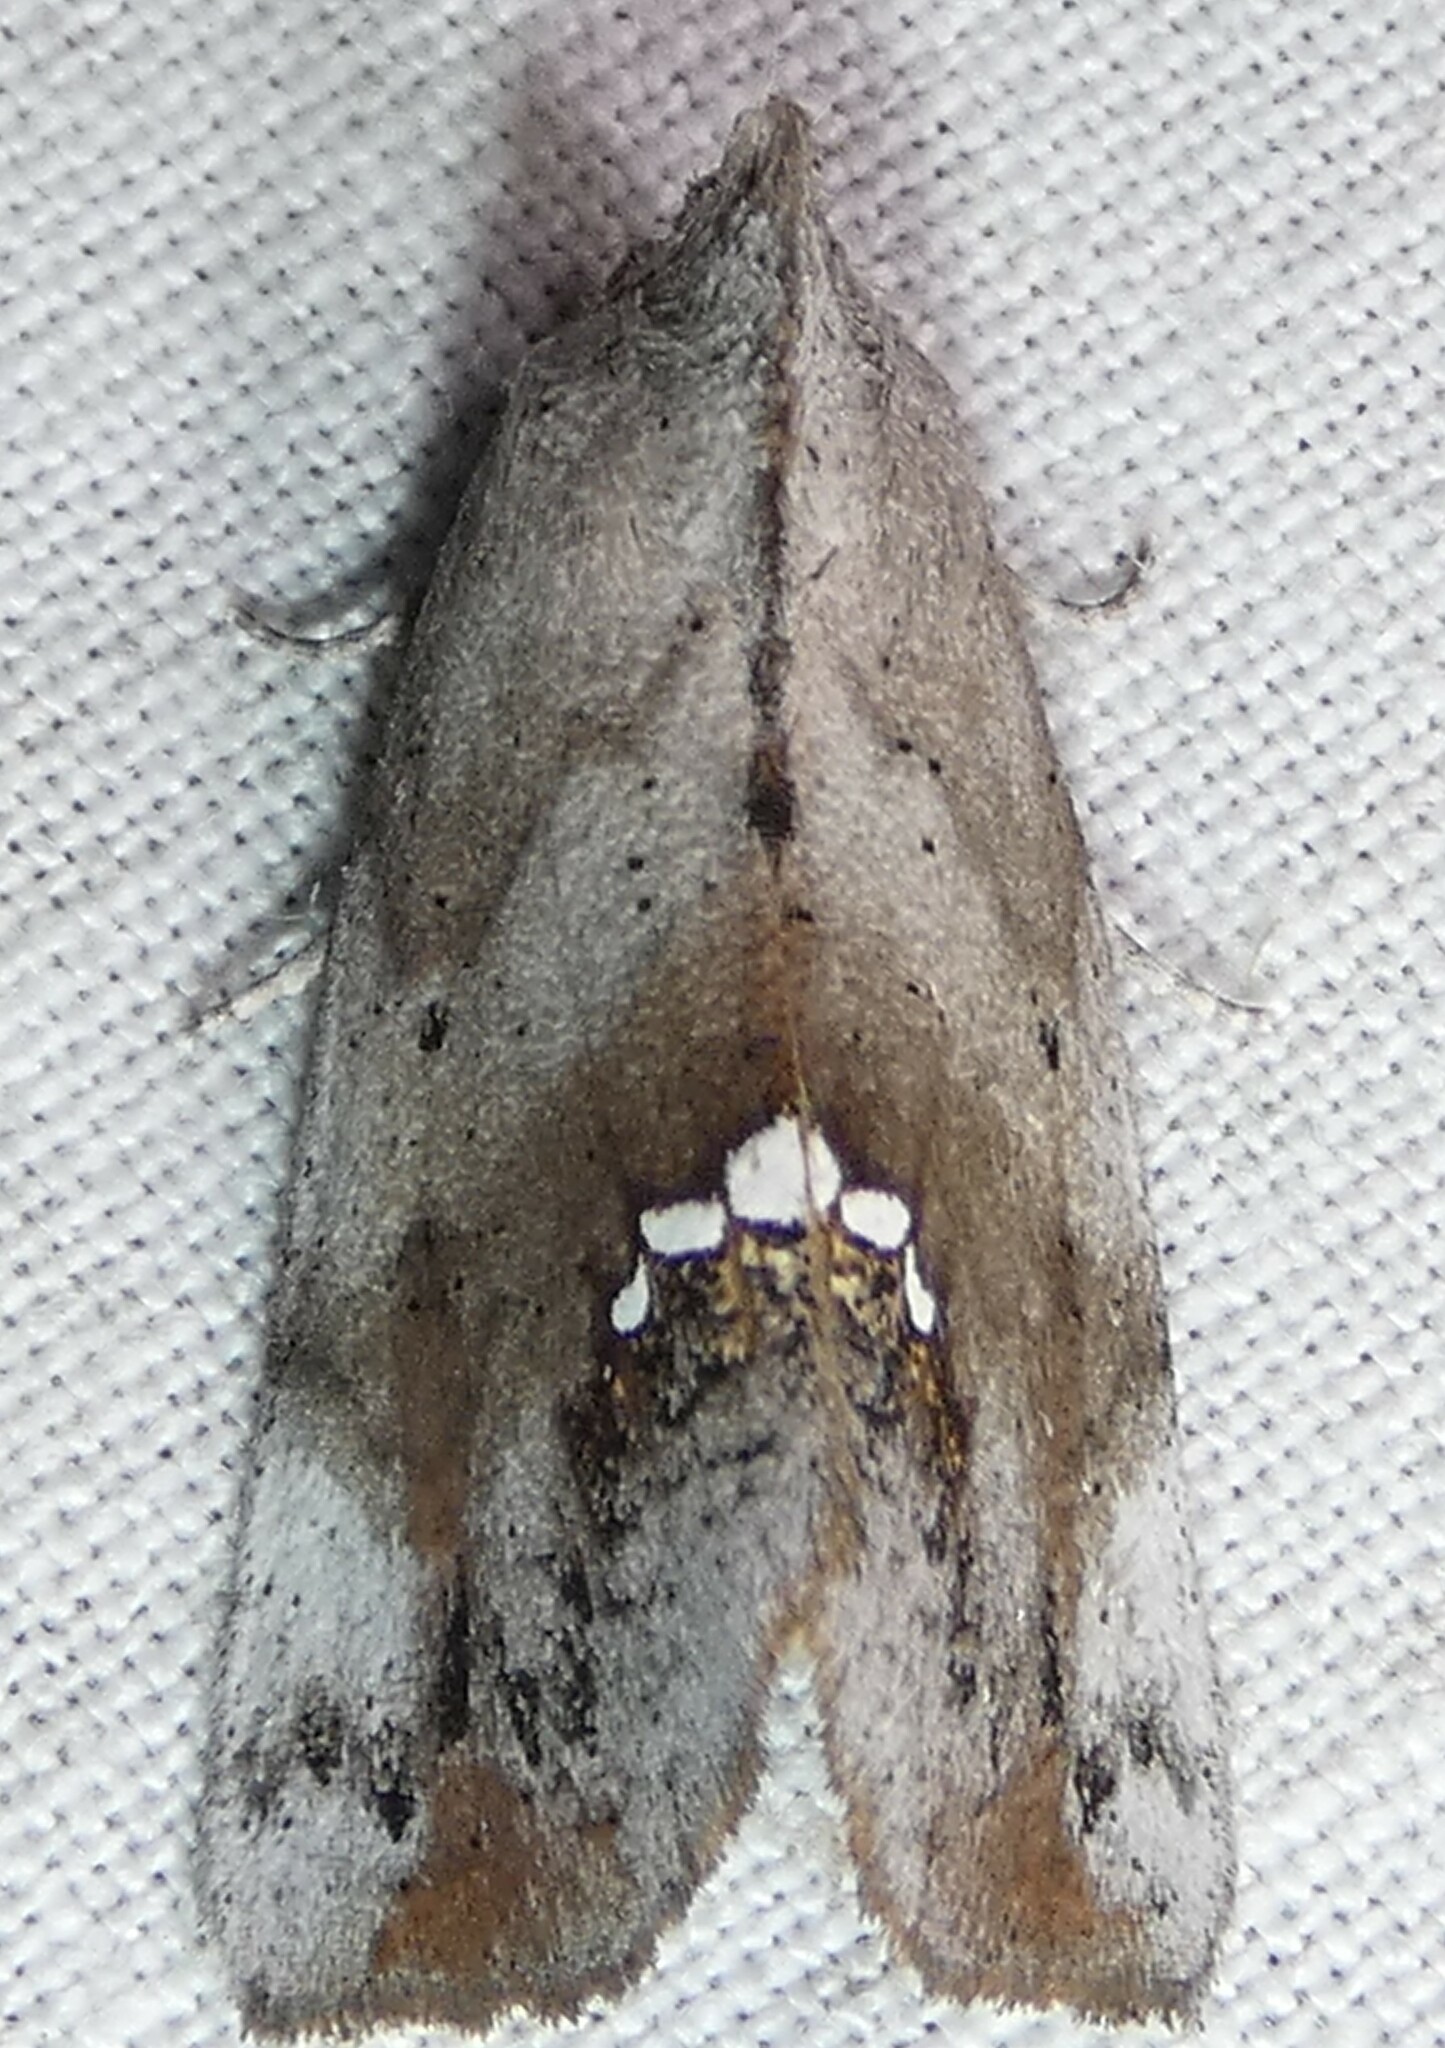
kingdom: Animalia
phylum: Arthropoda
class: Insecta
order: Lepidoptera
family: Erebidae
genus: Hypsoropha
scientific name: Hypsoropha hormos
